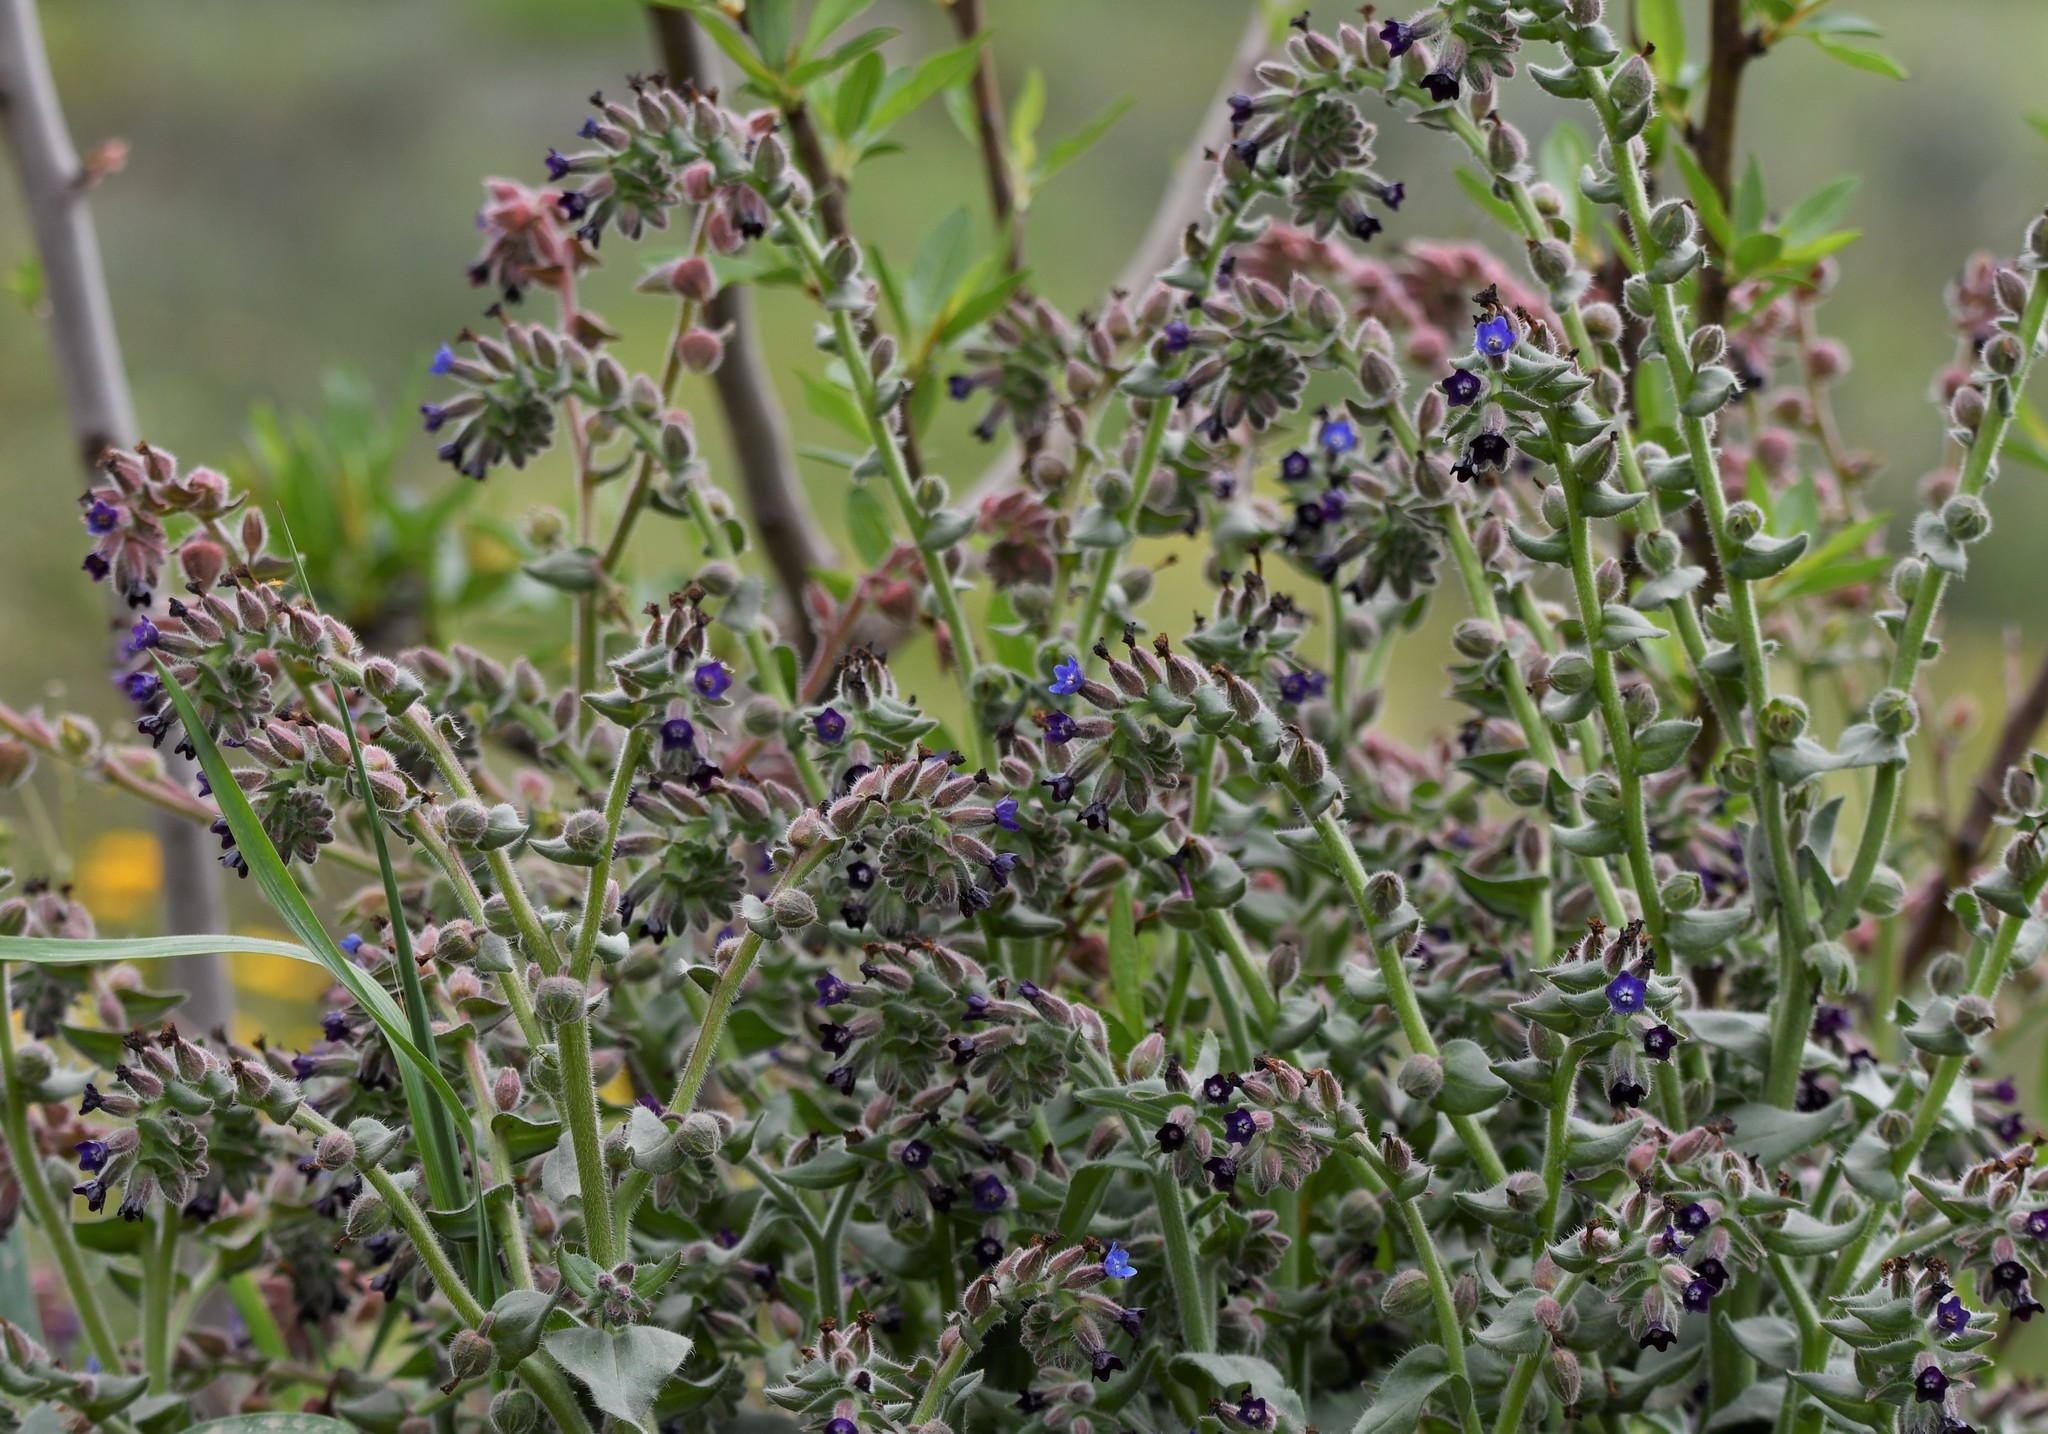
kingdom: Plantae
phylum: Tracheophyta
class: Magnoliopsida
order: Boraginales
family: Boraginaceae
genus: Anchusa
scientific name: Anchusa undulata
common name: Undulate alkanet
